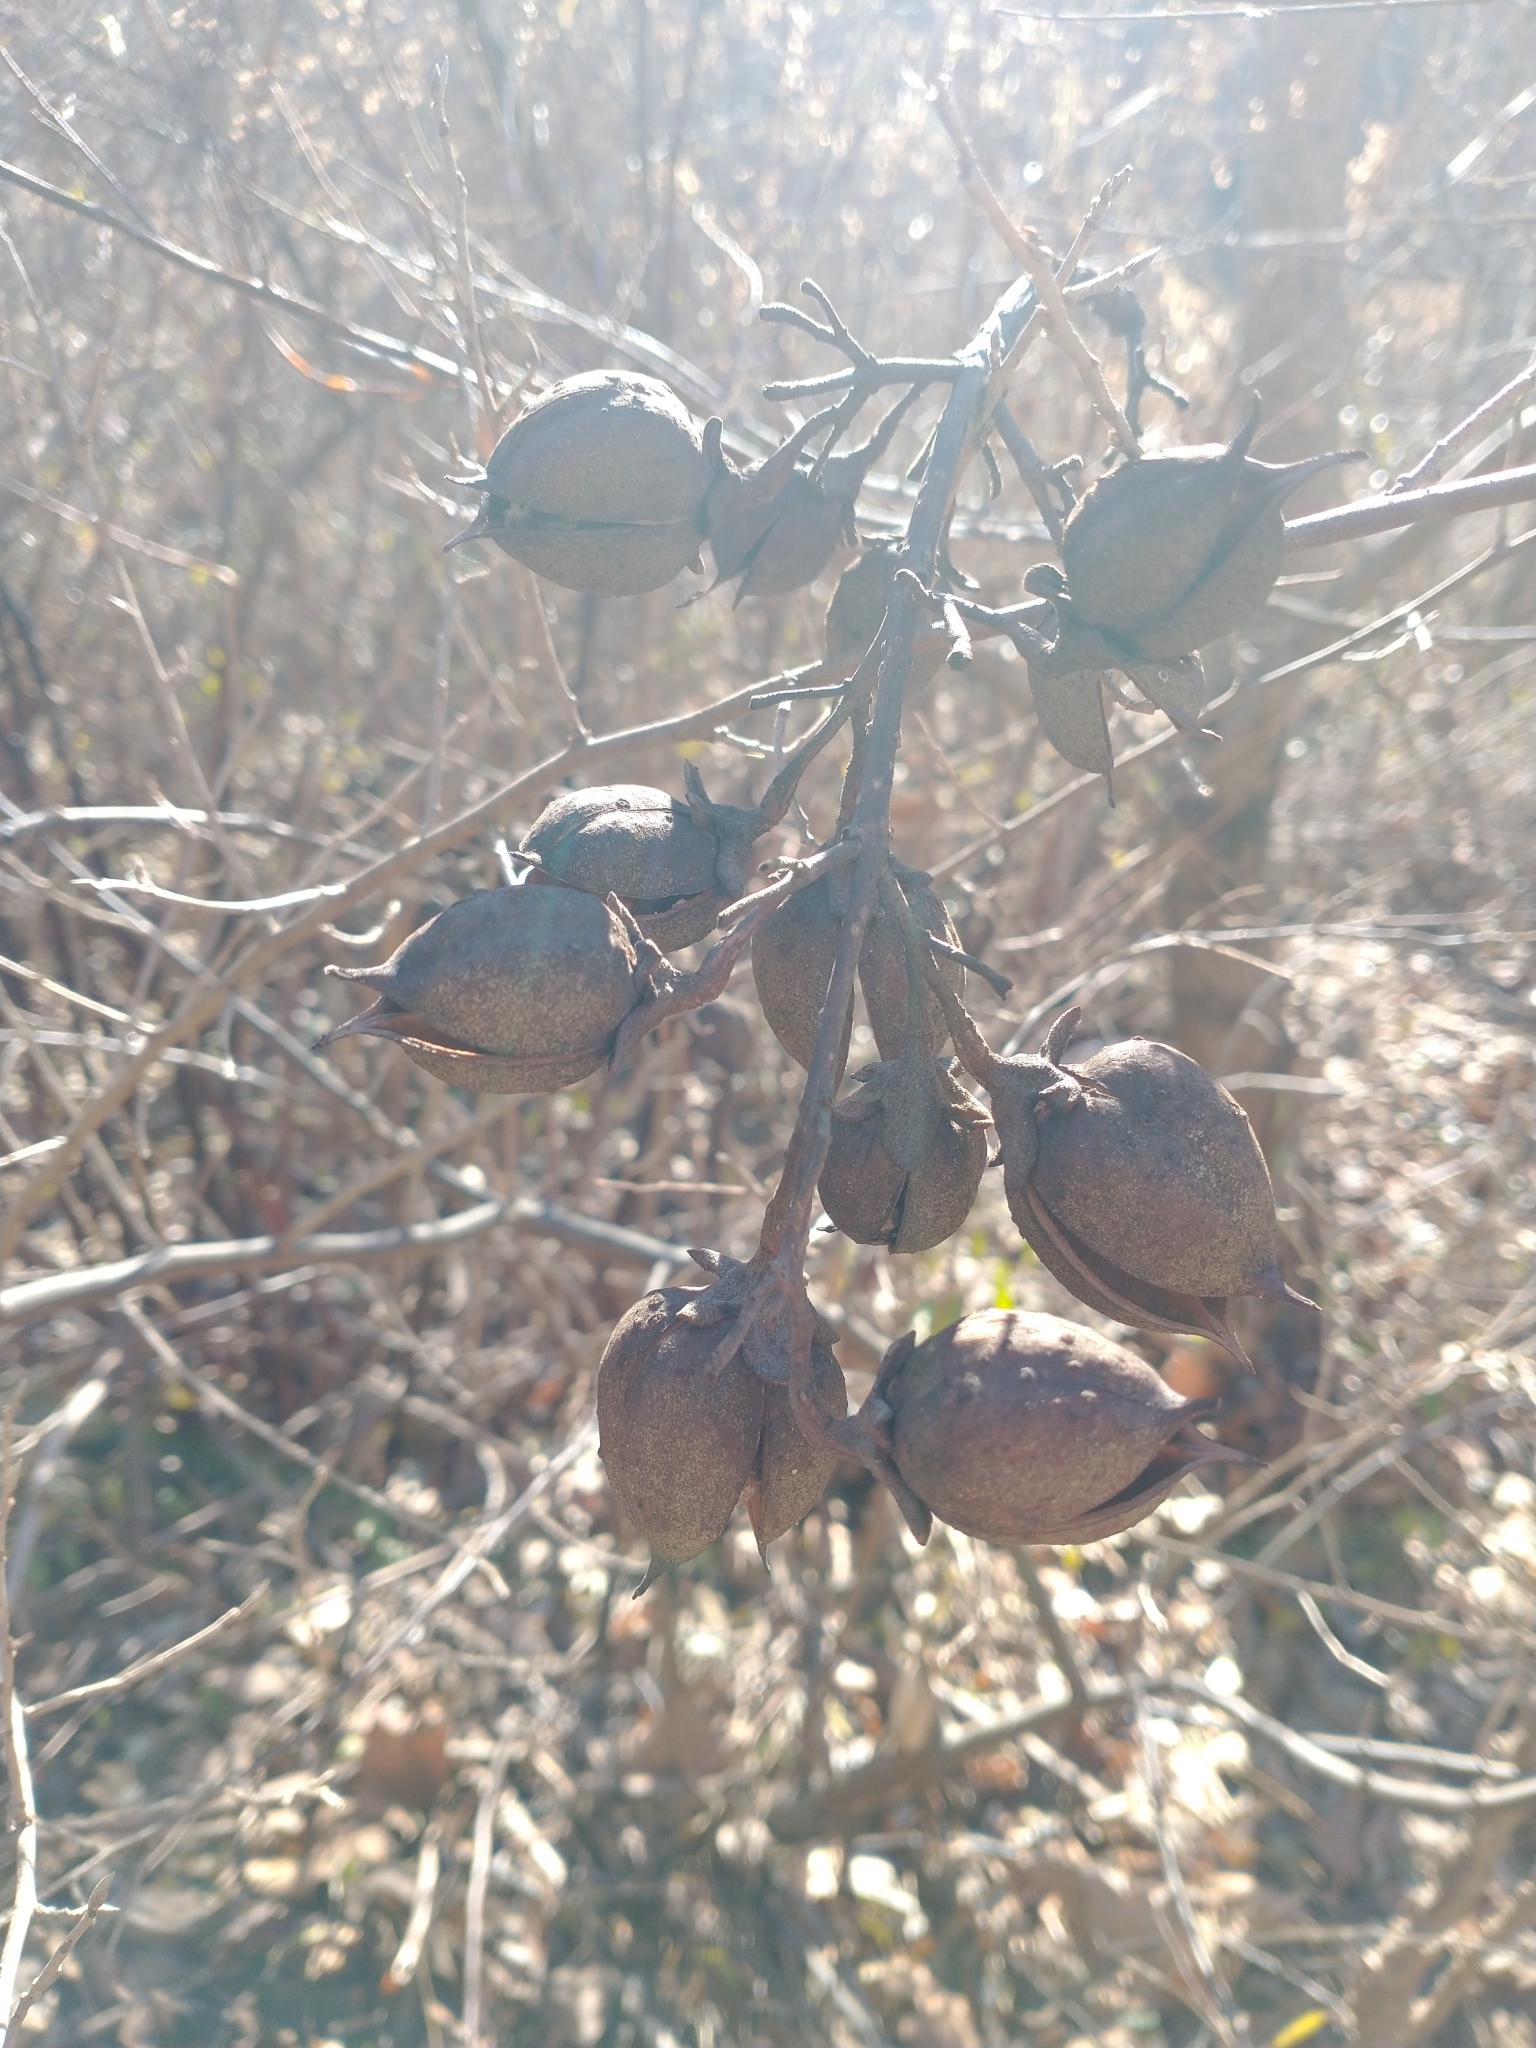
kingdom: Plantae
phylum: Tracheophyta
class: Magnoliopsida
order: Lamiales
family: Paulowniaceae
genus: Paulownia
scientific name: Paulownia tomentosa
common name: Foxglove-tree
